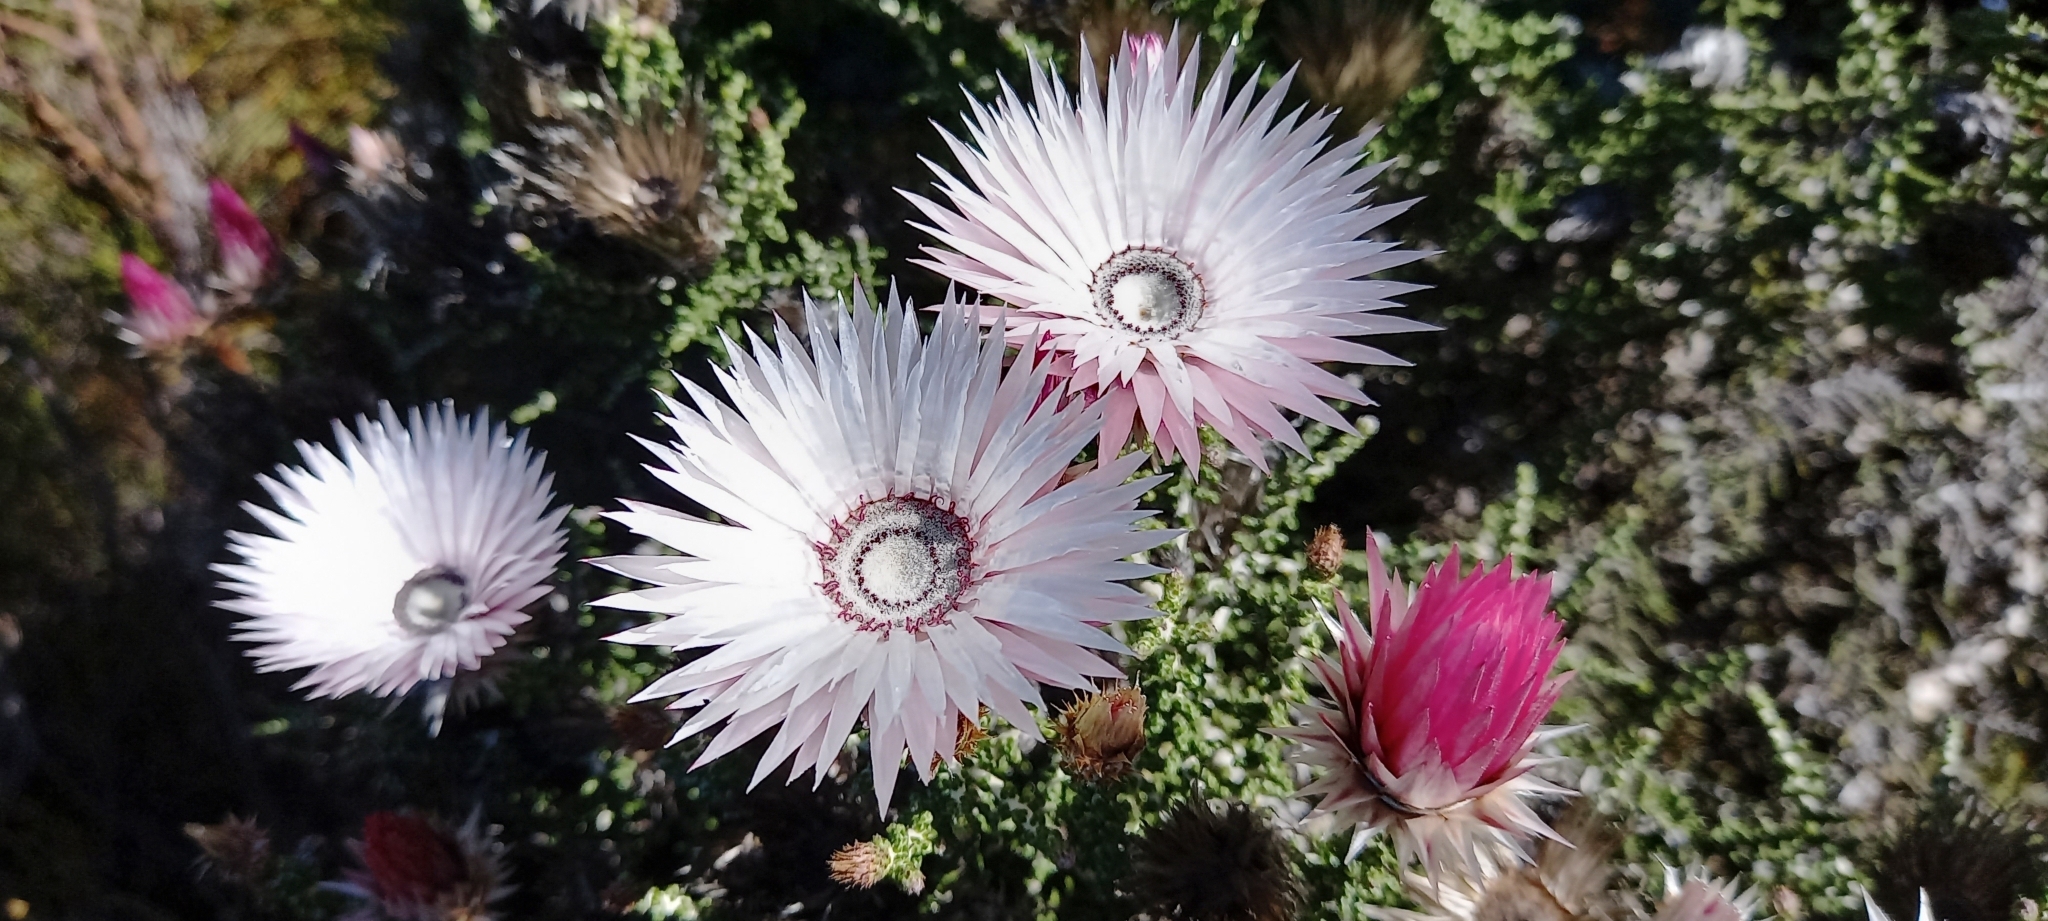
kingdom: Plantae
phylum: Tracheophyta
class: Magnoliopsida
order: Asterales
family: Asteraceae
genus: Phaenocoma
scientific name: Phaenocoma prolifera
